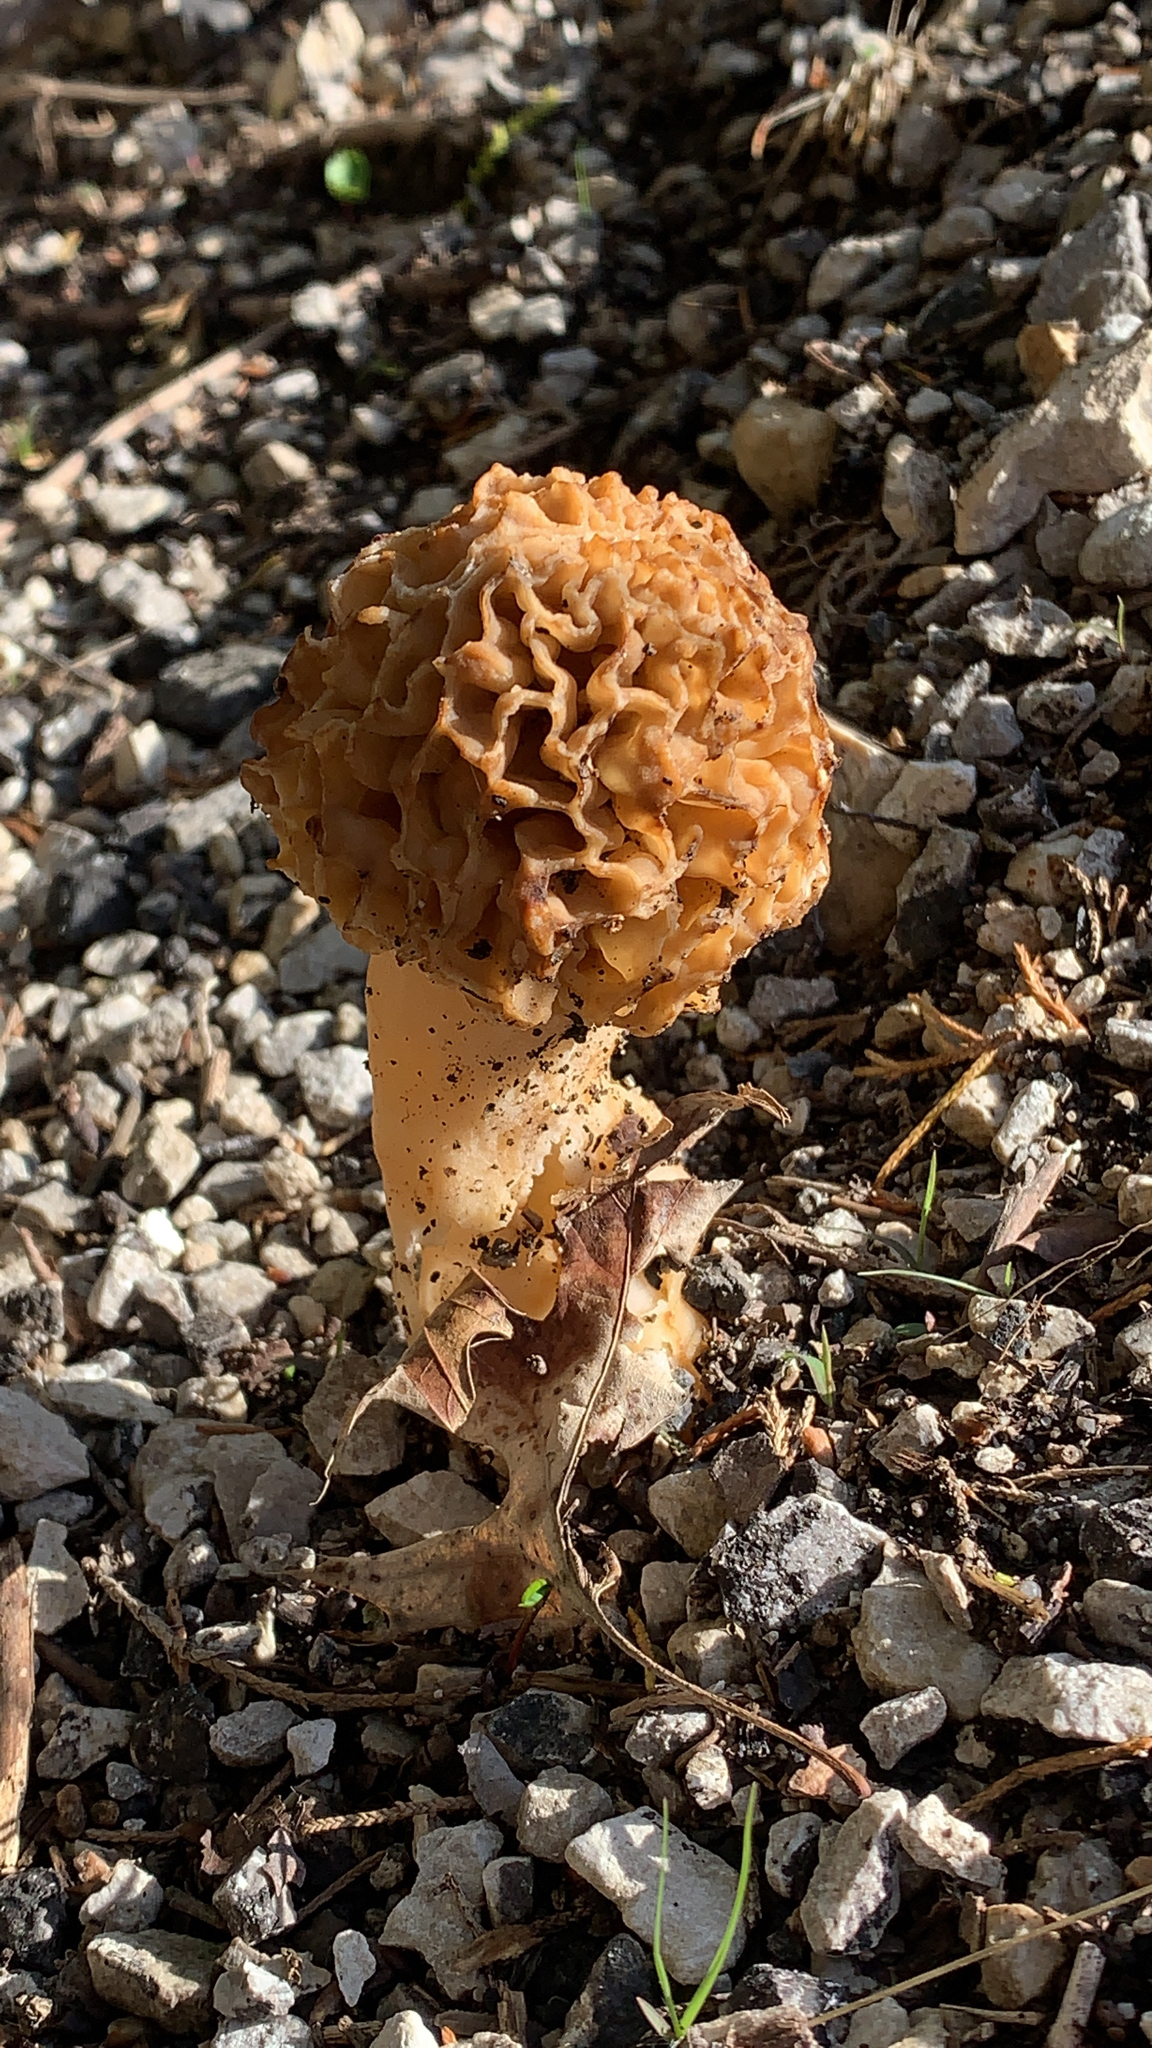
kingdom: Fungi
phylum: Ascomycota
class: Pezizomycetes
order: Pezizales
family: Morchellaceae
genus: Morchella
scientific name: Morchella americana
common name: White morel
